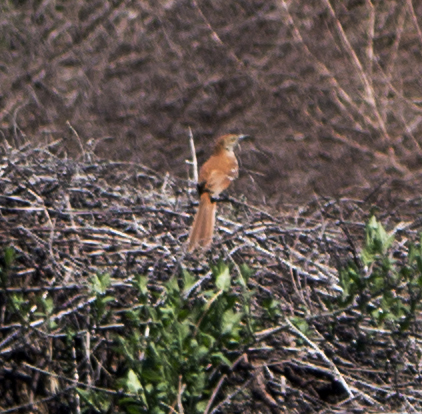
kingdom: Animalia
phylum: Chordata
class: Aves
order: Passeriformes
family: Mimidae
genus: Toxostoma
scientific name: Toxostoma rufum
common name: Brown thrasher
